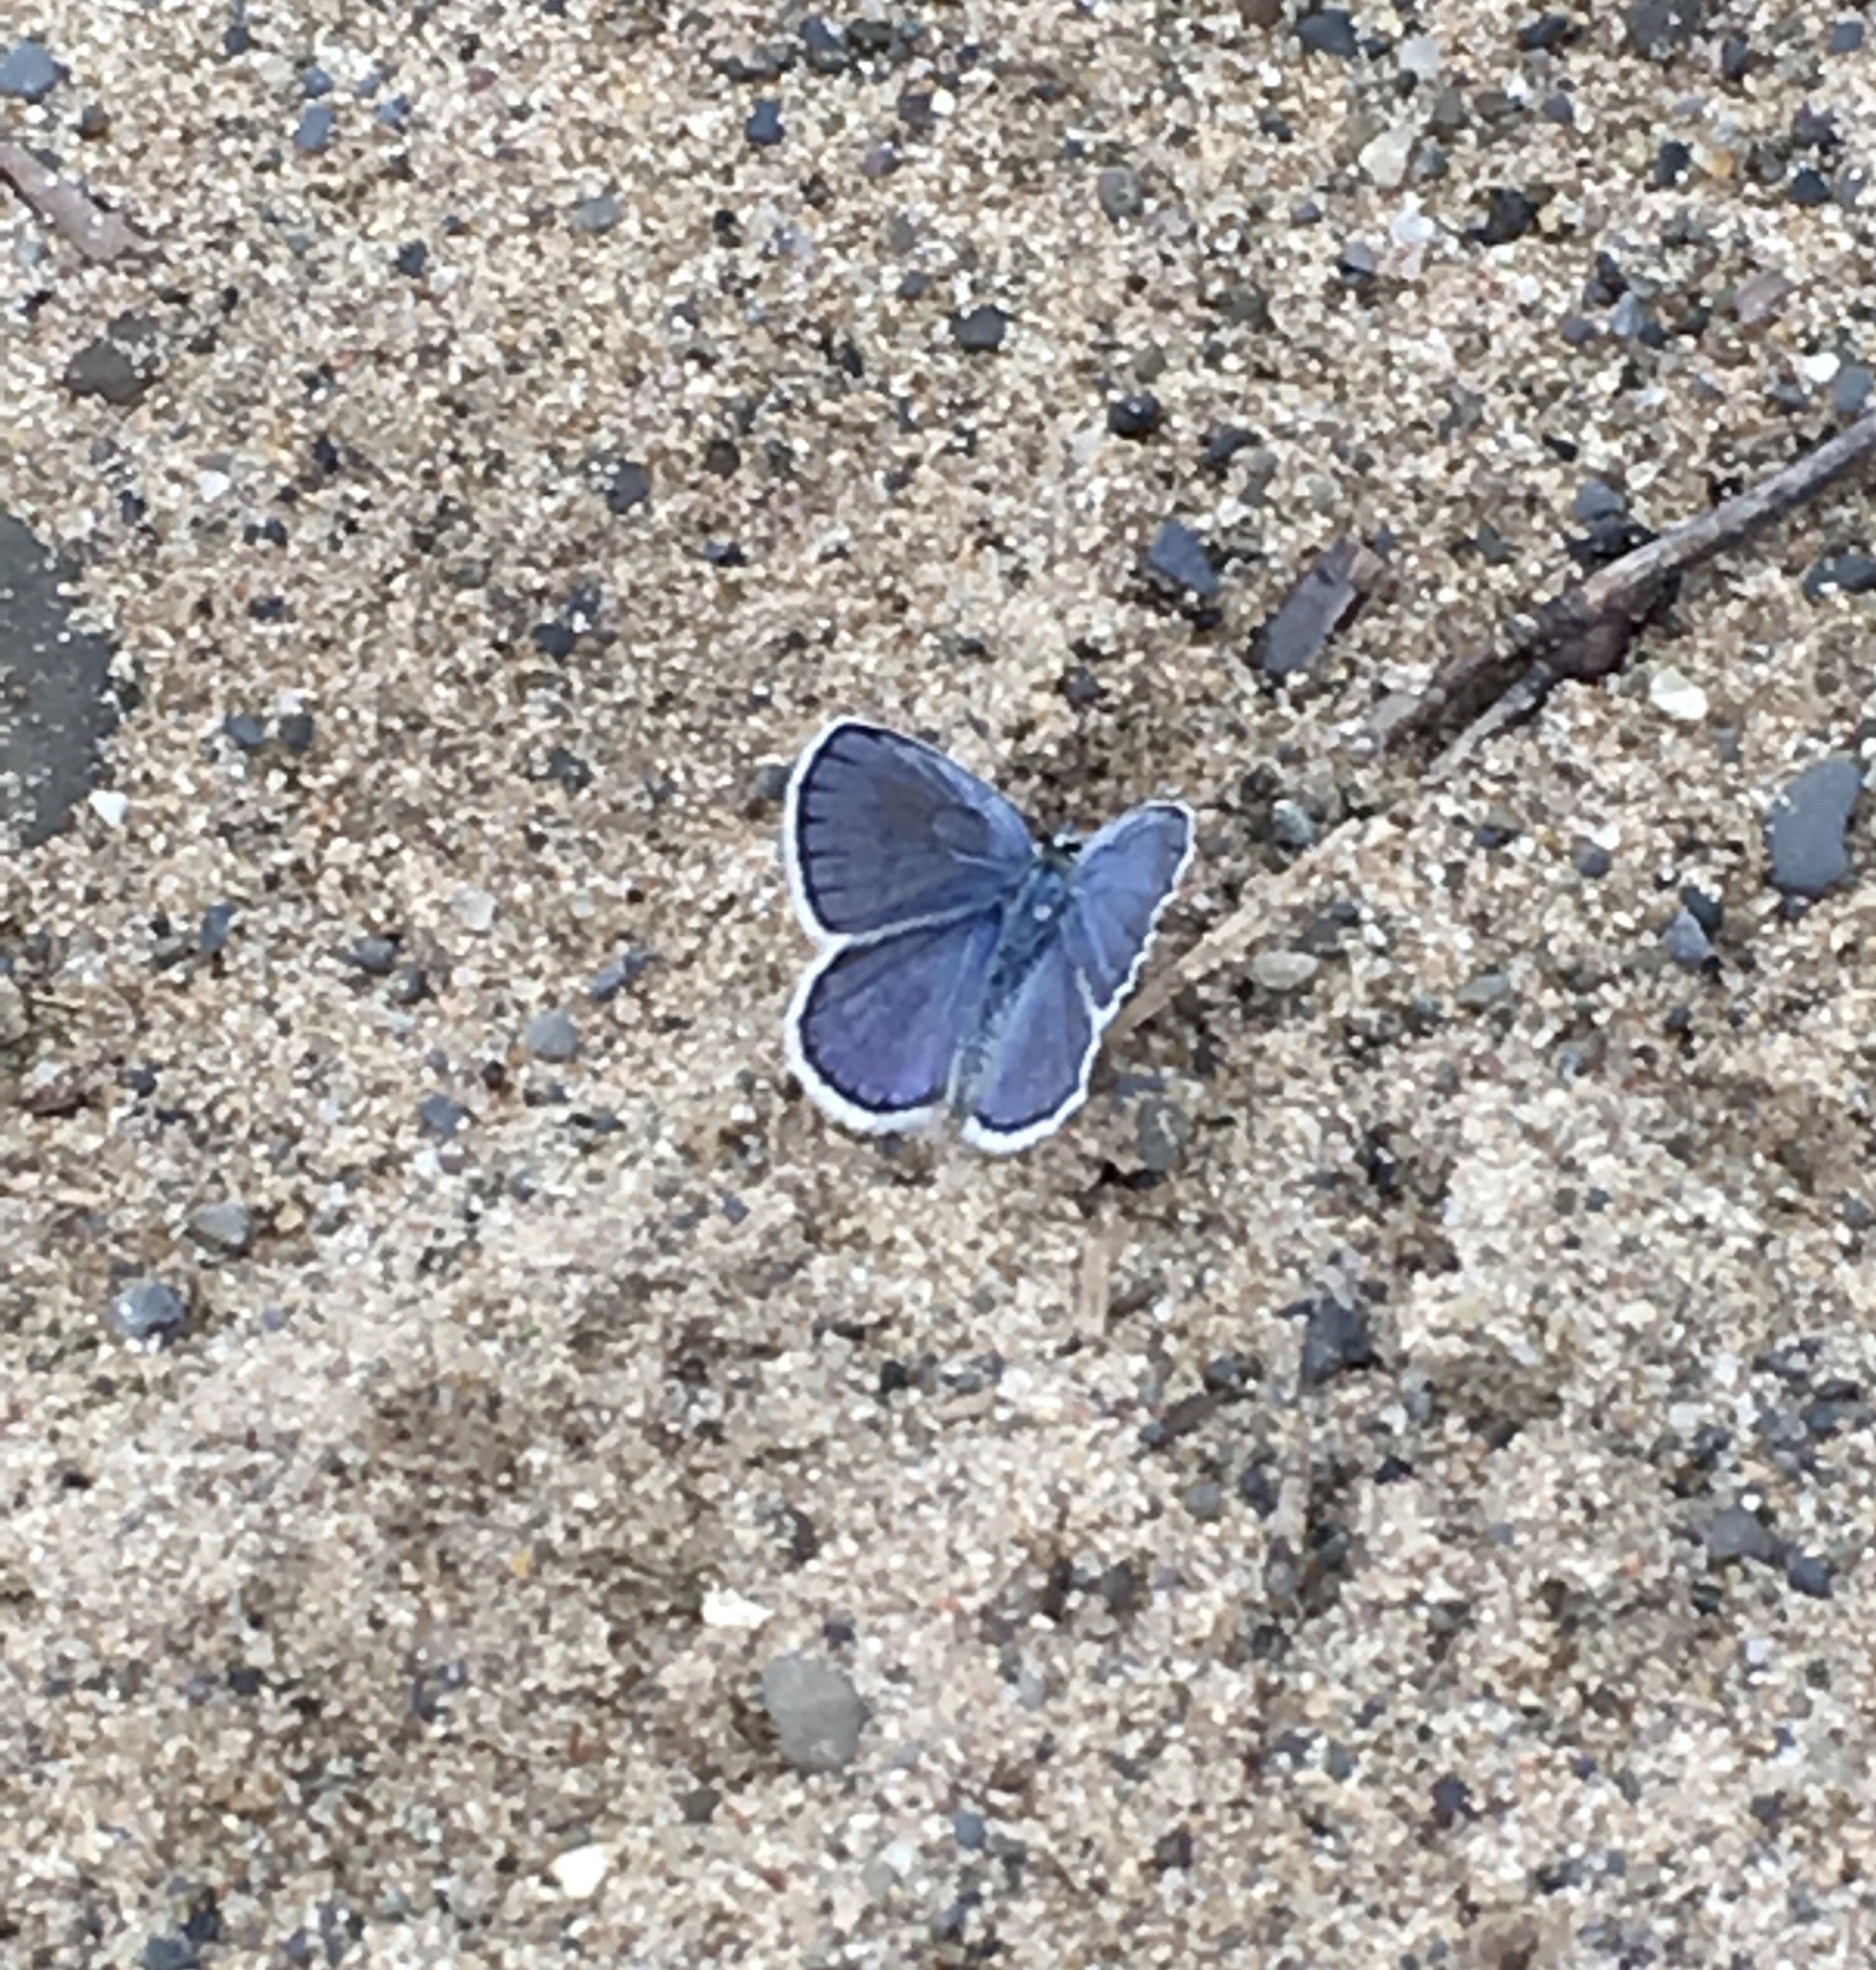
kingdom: Animalia
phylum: Arthropoda
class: Insecta
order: Lepidoptera
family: Lycaenidae
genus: Plebejus
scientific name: Plebejus samuelis
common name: Karner blue
